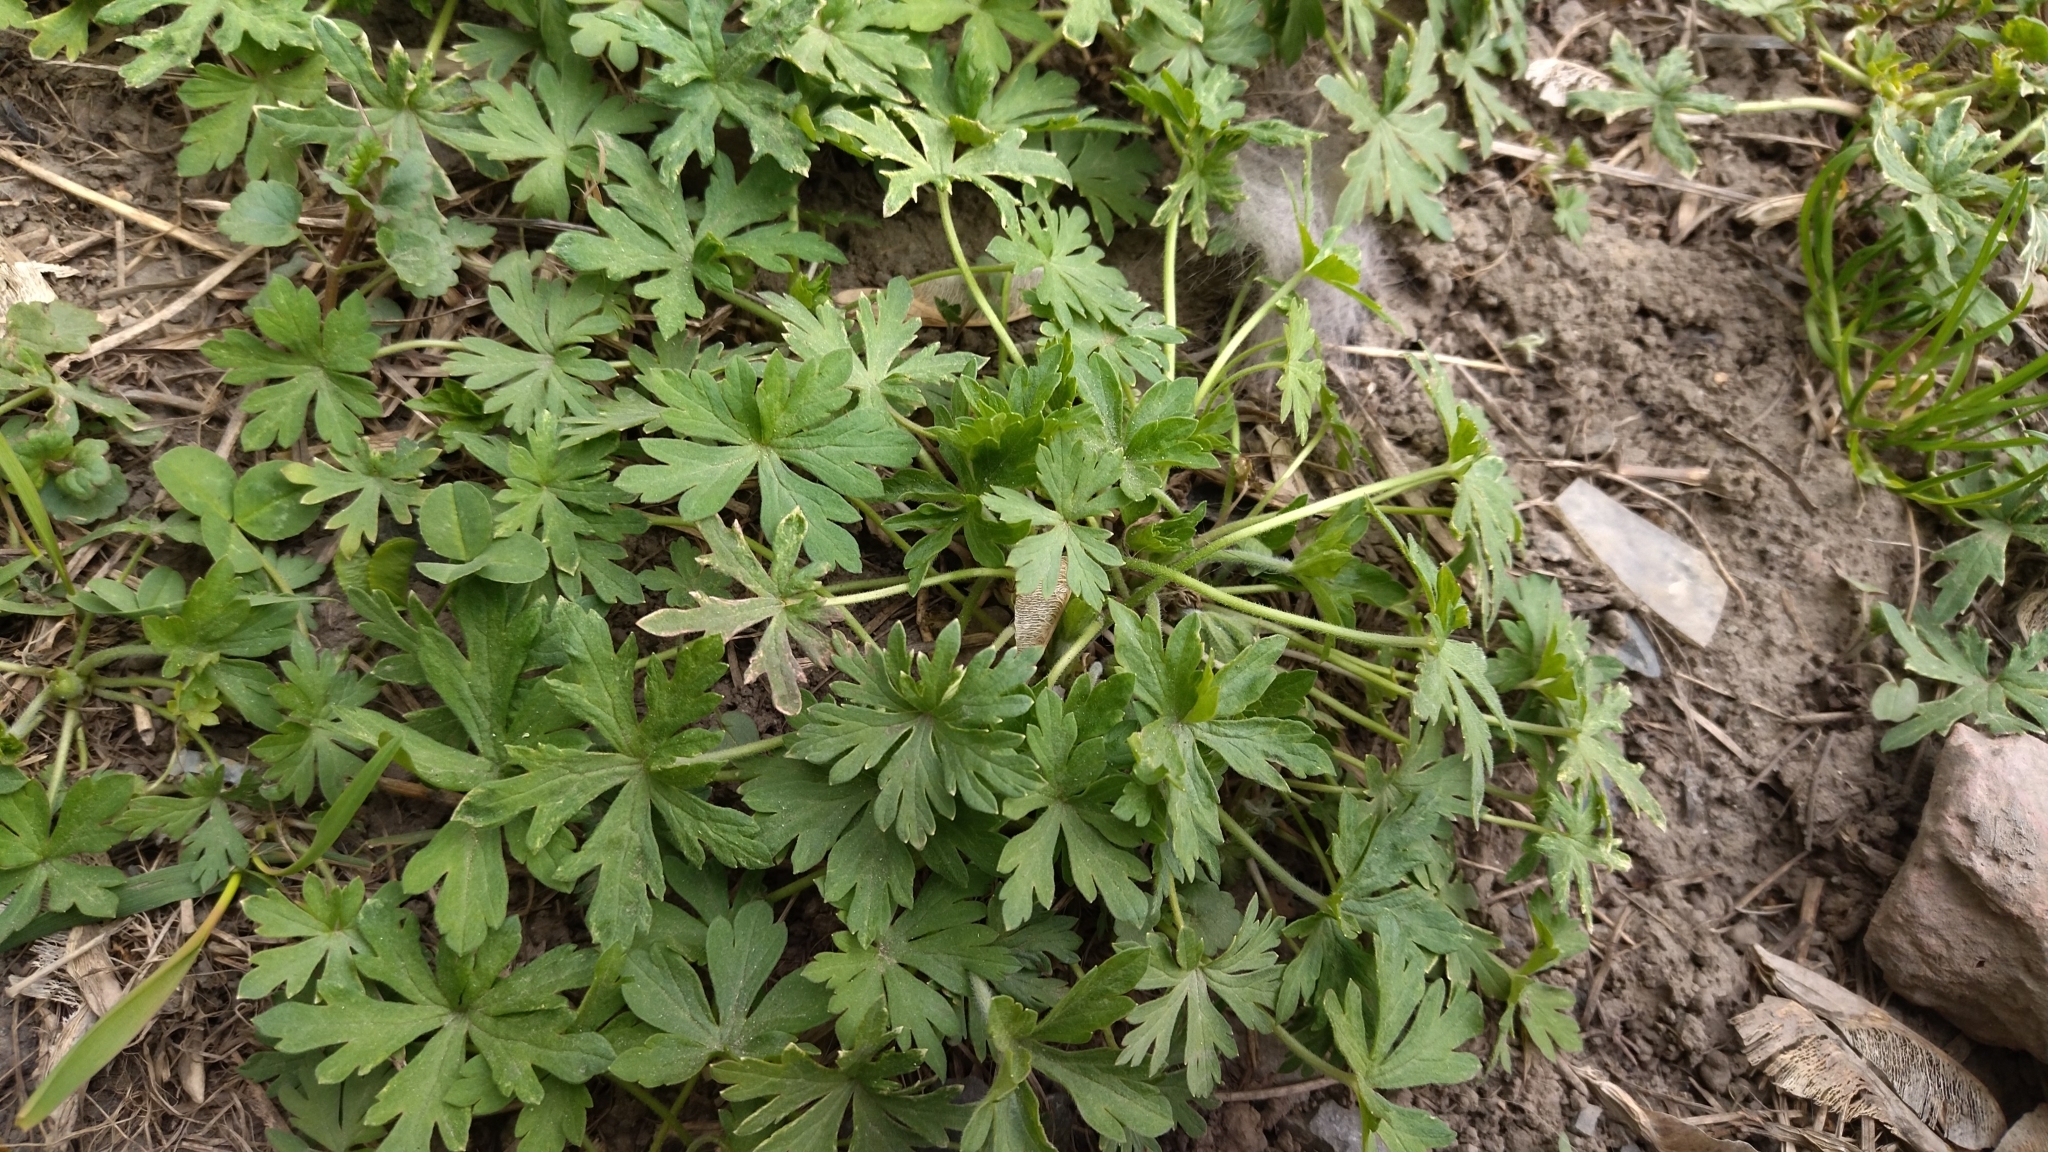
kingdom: Plantae
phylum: Tracheophyta
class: Magnoliopsida
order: Geraniales
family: Geraniaceae
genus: Geranium
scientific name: Geranium sibiricum
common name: Siberian crane's-bill
